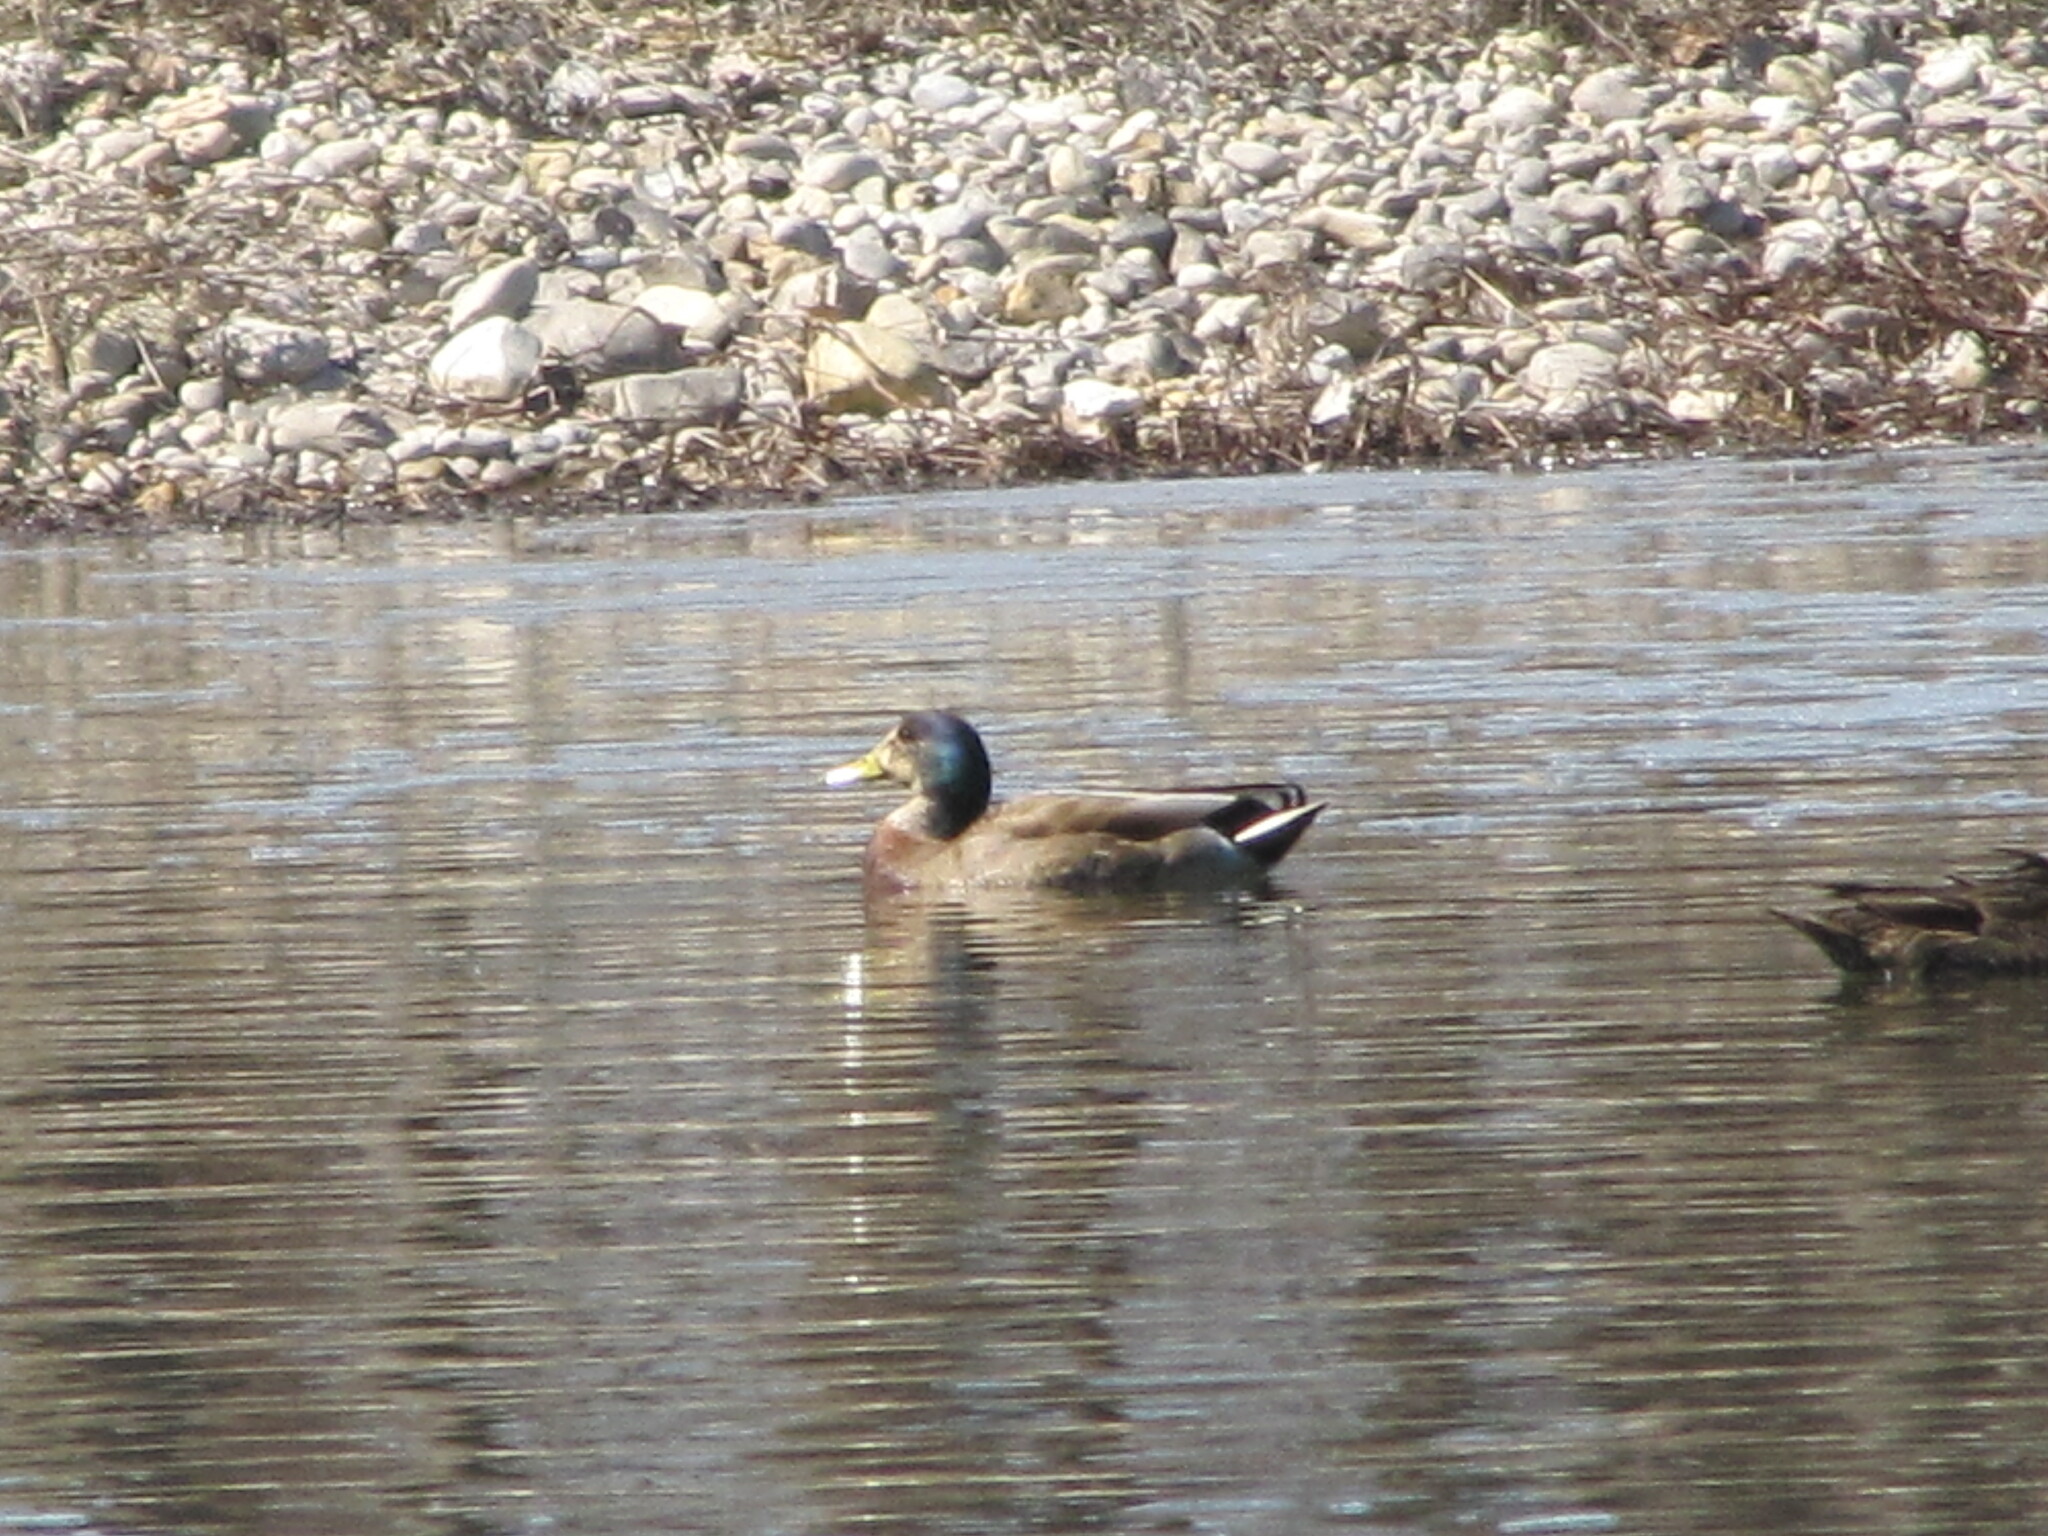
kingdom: Animalia
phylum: Chordata
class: Aves
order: Anseriformes
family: Anatidae
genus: Anas
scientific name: Anas platyrhynchos
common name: Mallard
